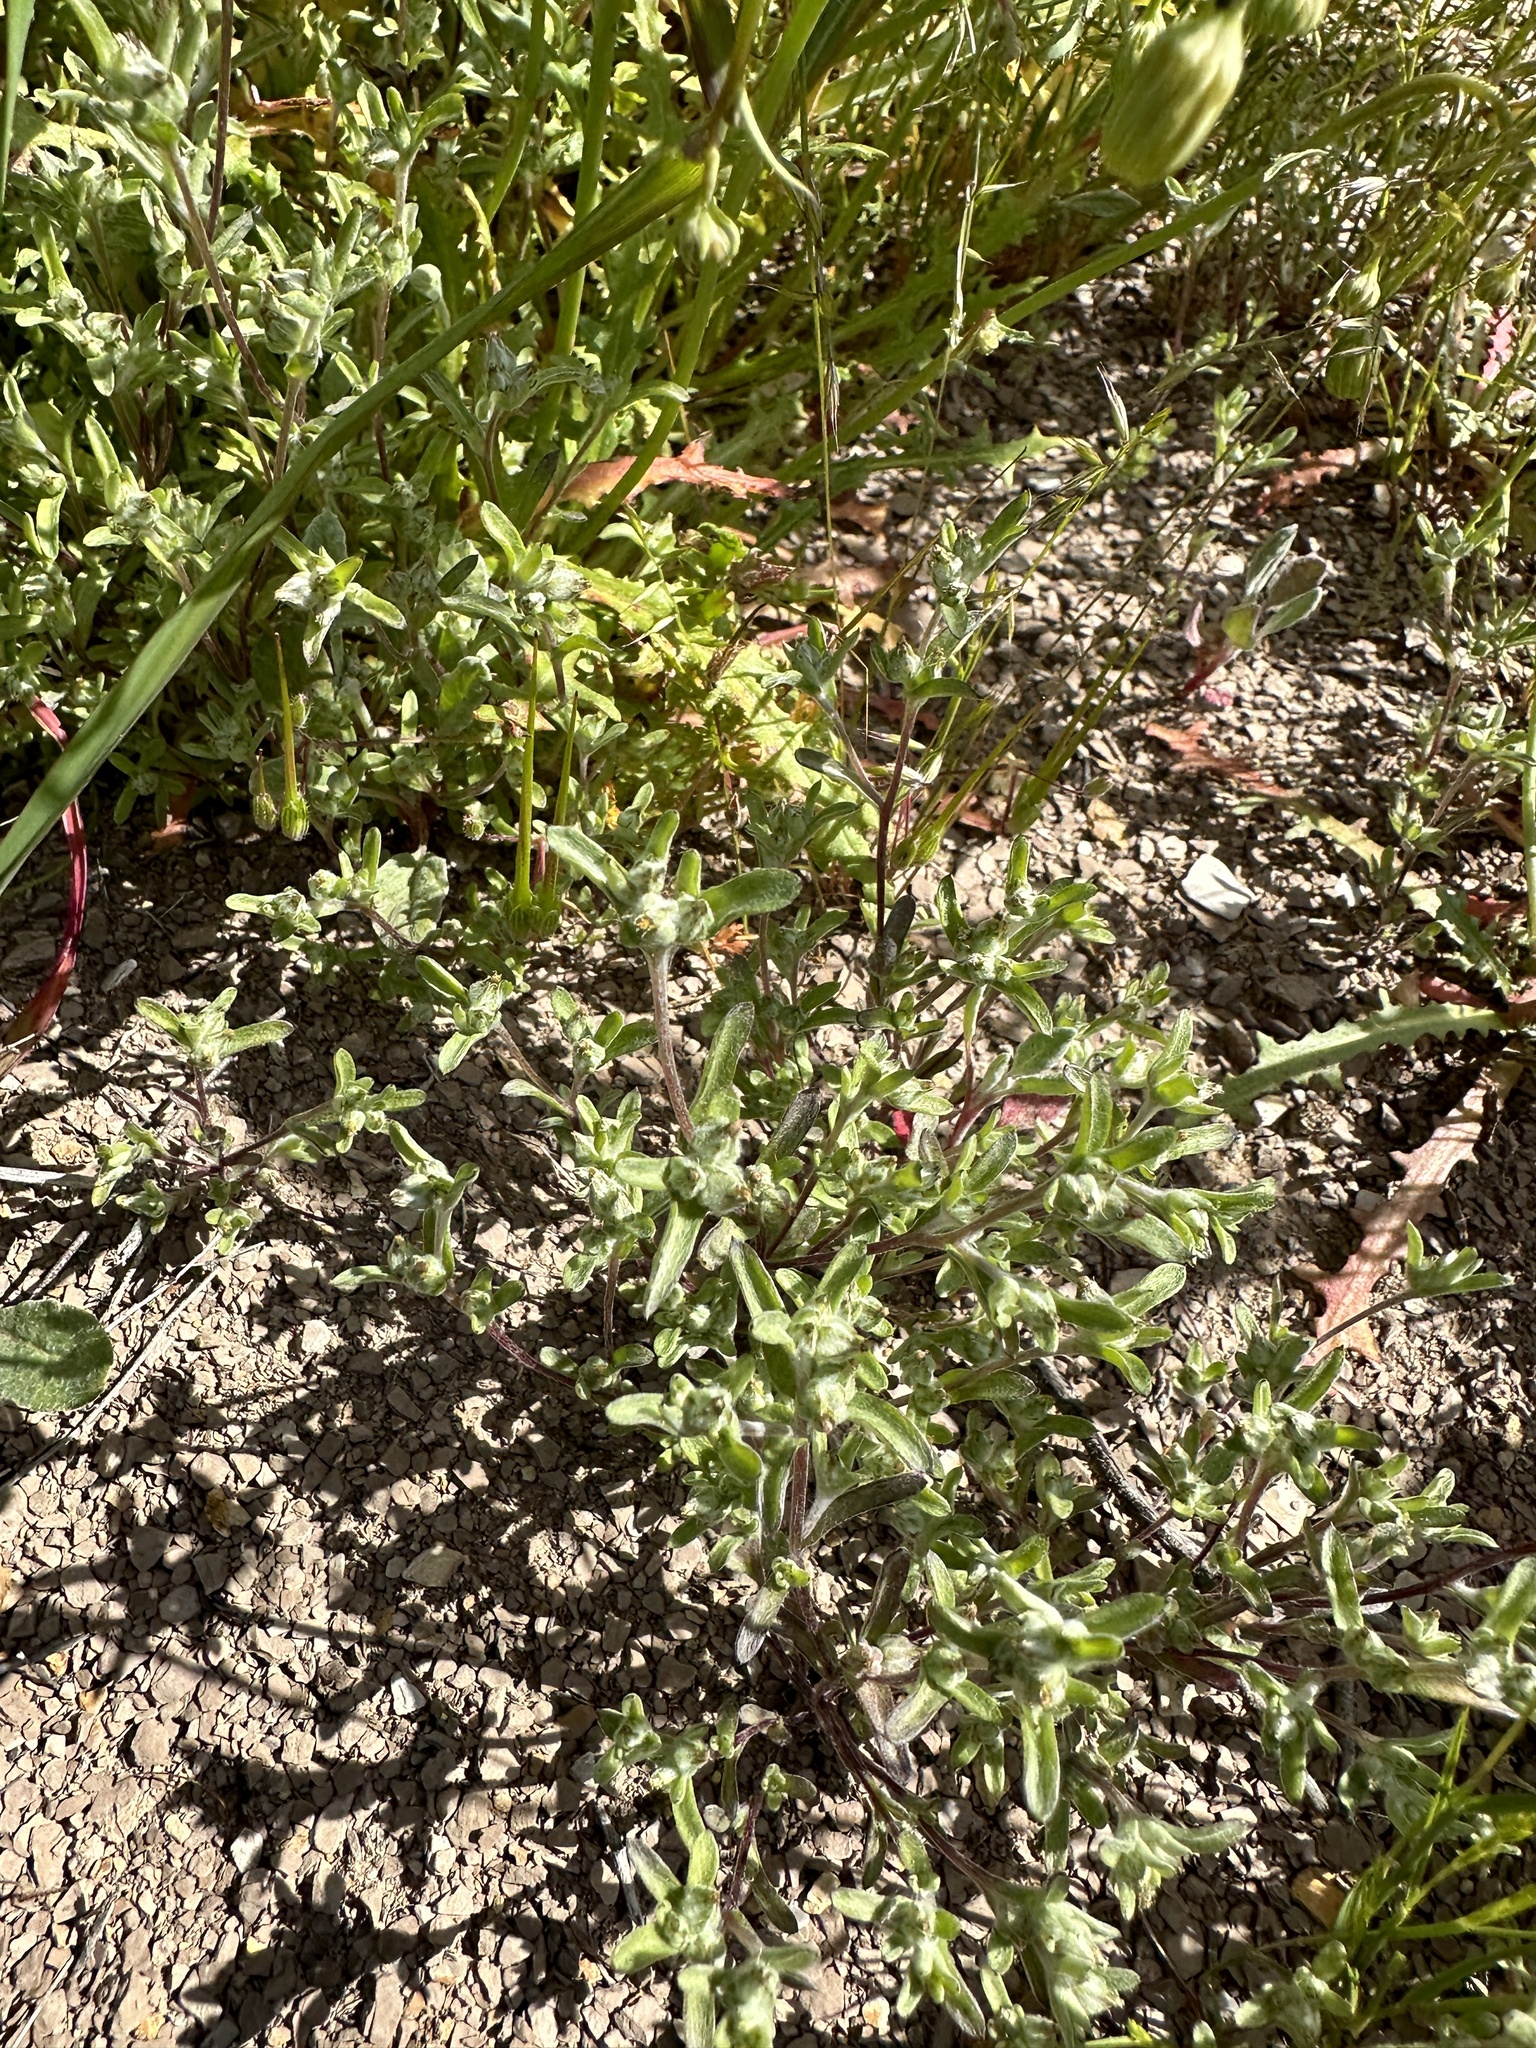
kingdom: Plantae
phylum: Tracheophyta
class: Magnoliopsida
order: Asterales
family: Asteraceae
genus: Logfia
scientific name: Logfia californica
